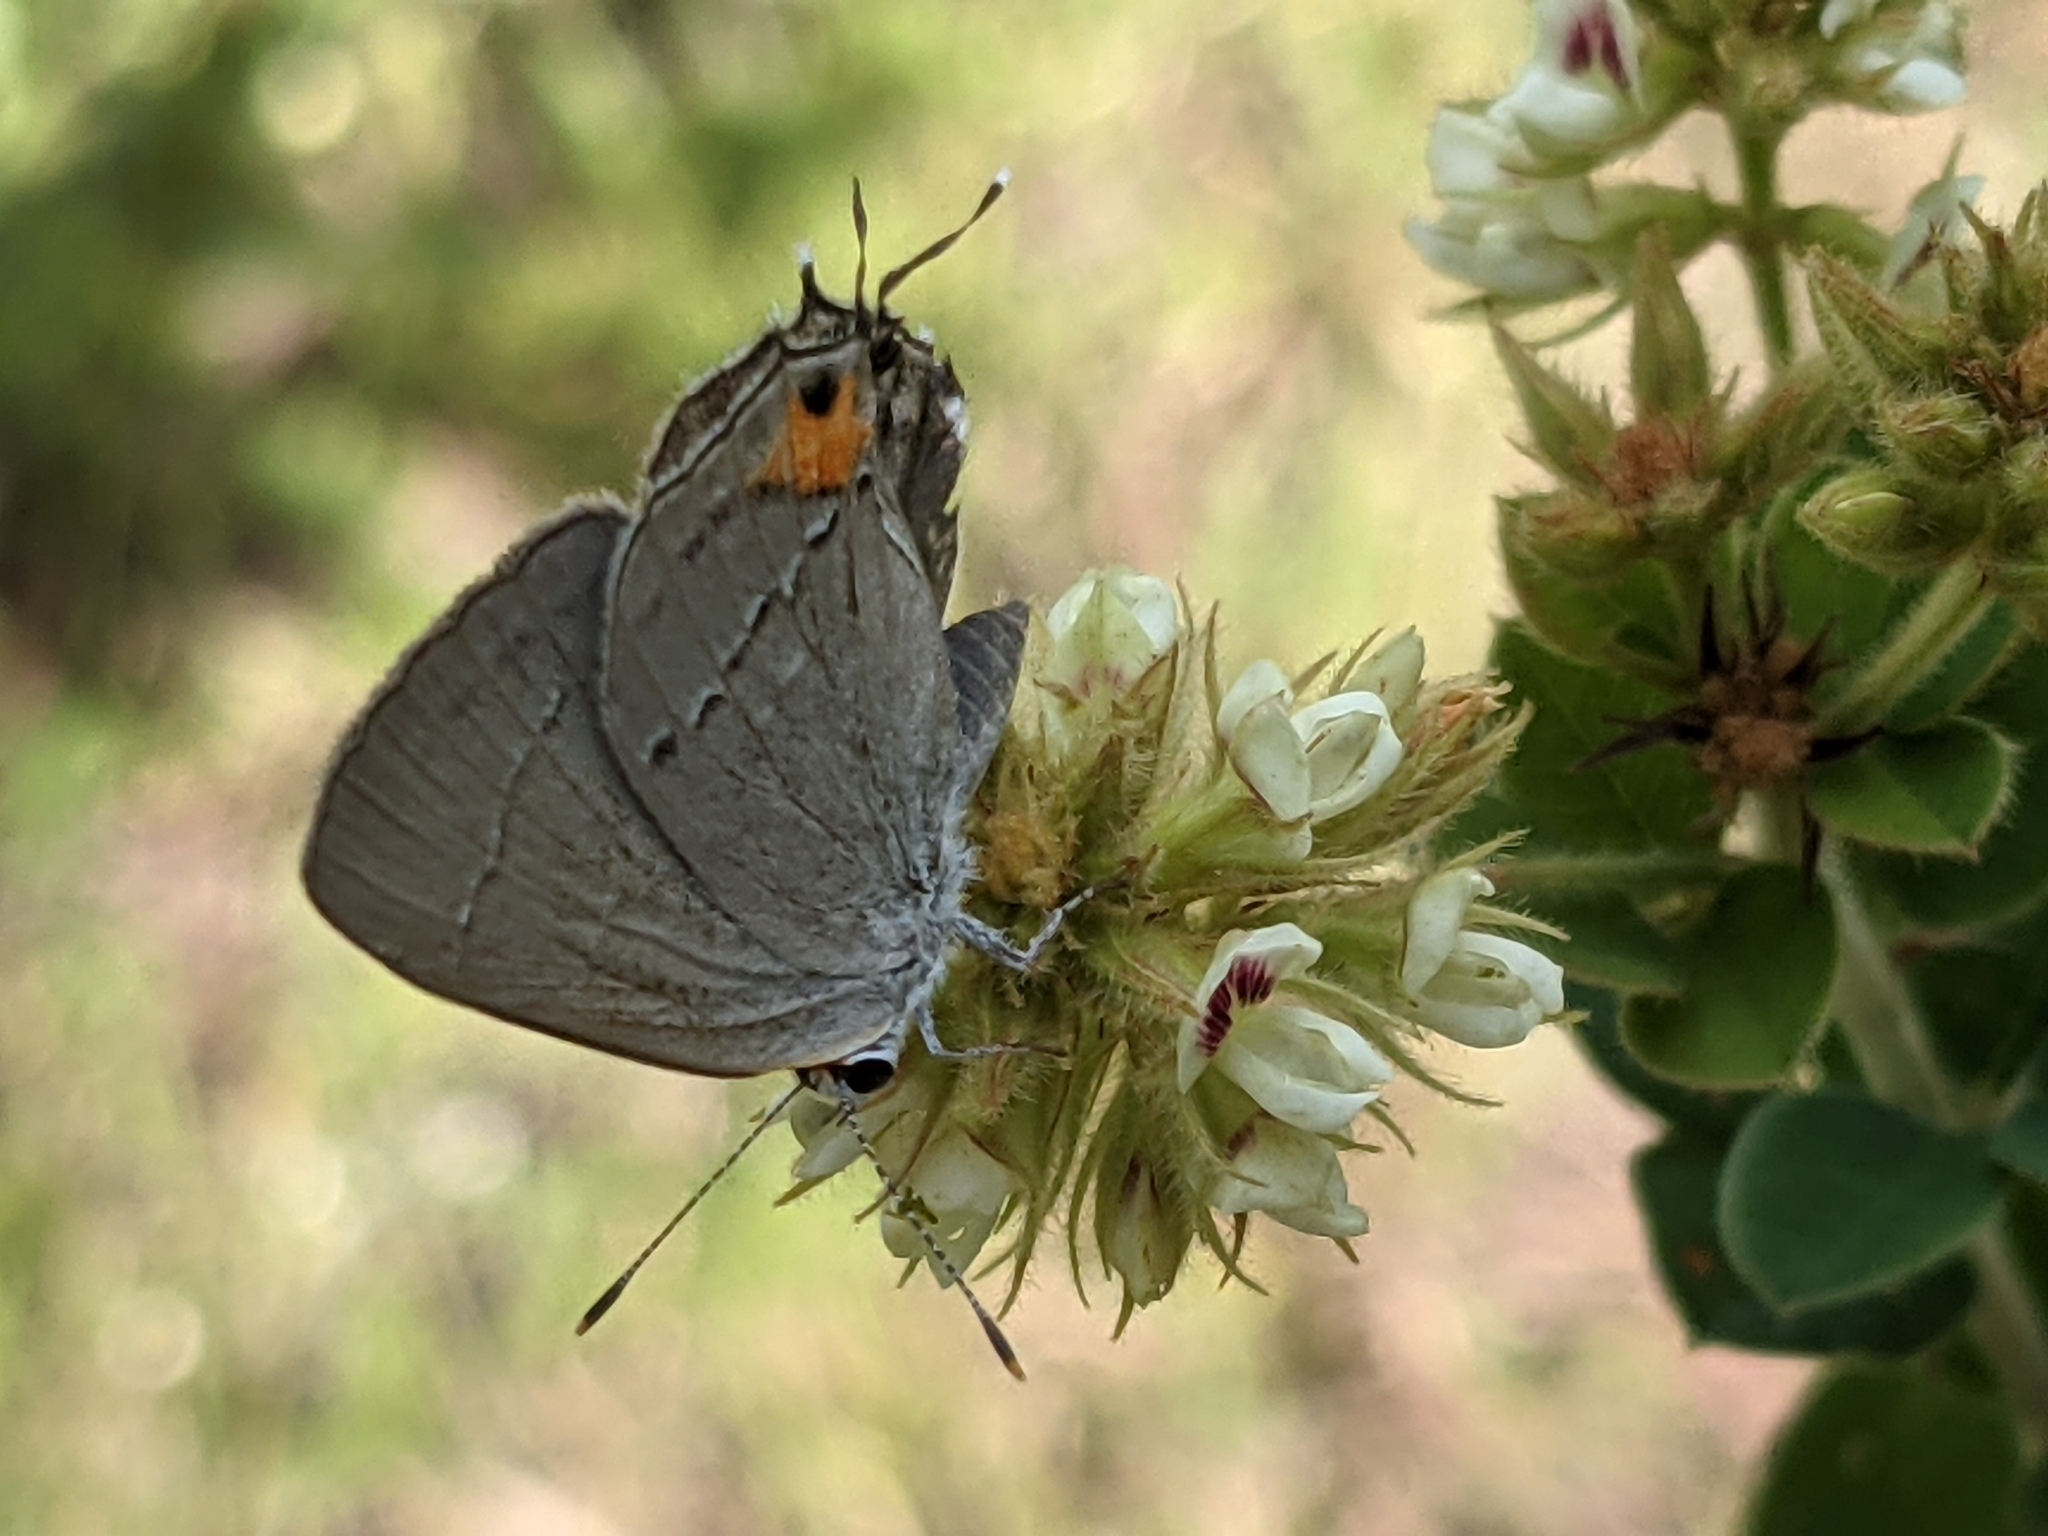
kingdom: Animalia
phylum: Arthropoda
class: Insecta
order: Lepidoptera
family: Lycaenidae
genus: Strymon
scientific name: Strymon melinus
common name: Gray hairstreak
